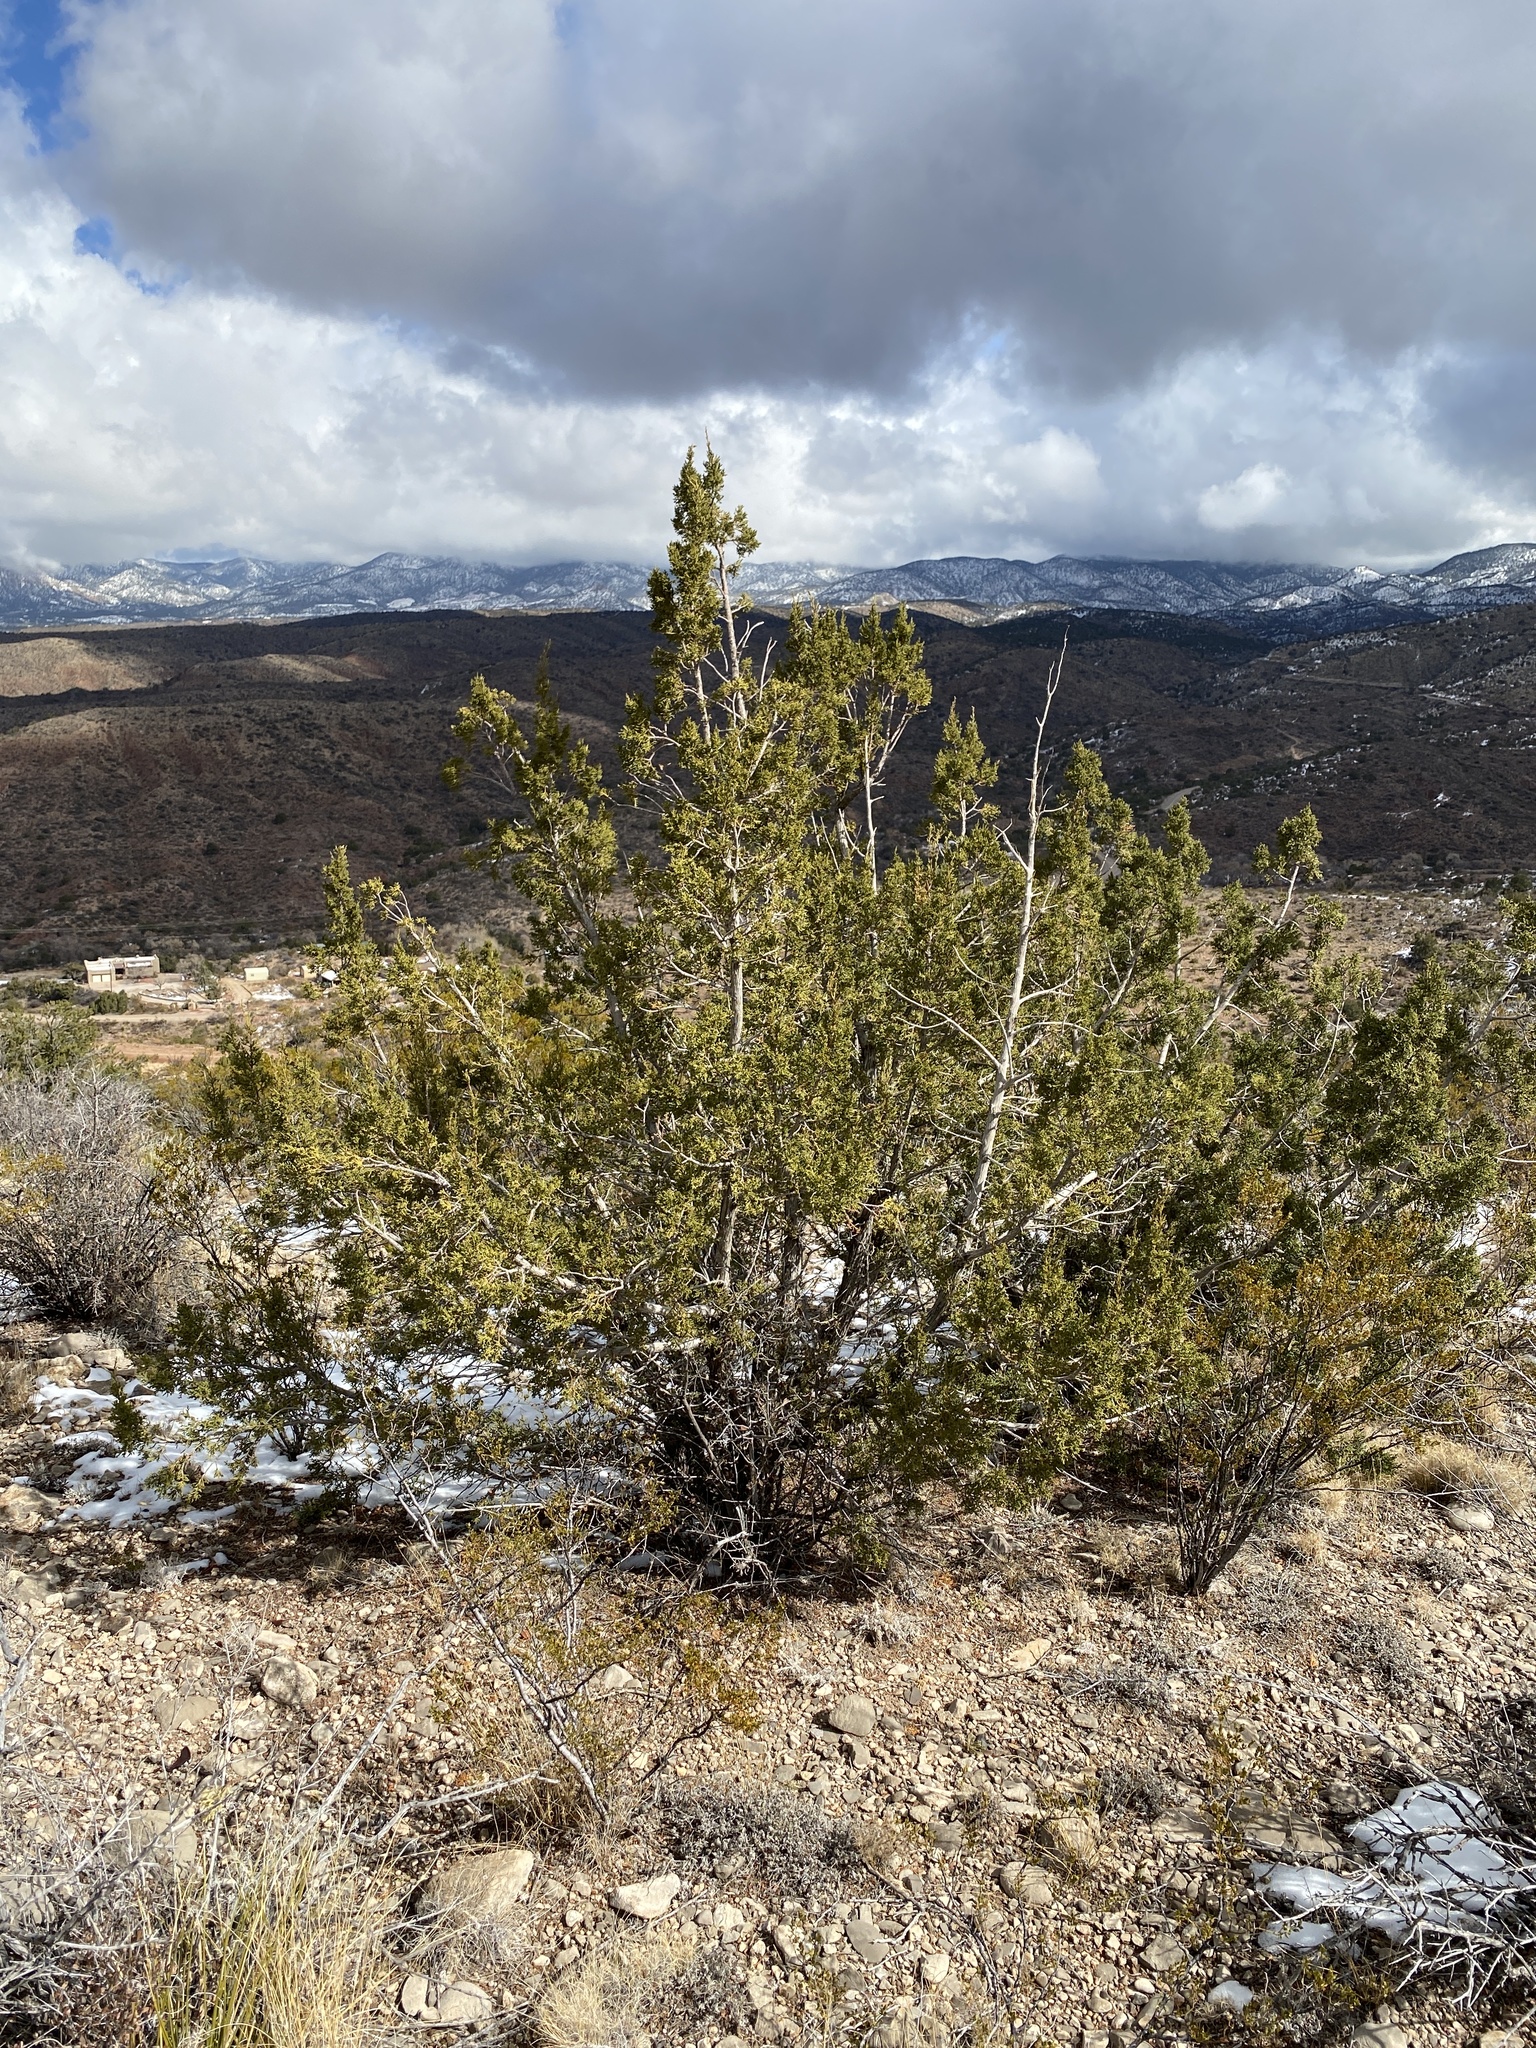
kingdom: Plantae
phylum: Tracheophyta
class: Pinopsida
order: Pinales
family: Cupressaceae
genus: Juniperus
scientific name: Juniperus monosperma
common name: One-seed juniper
